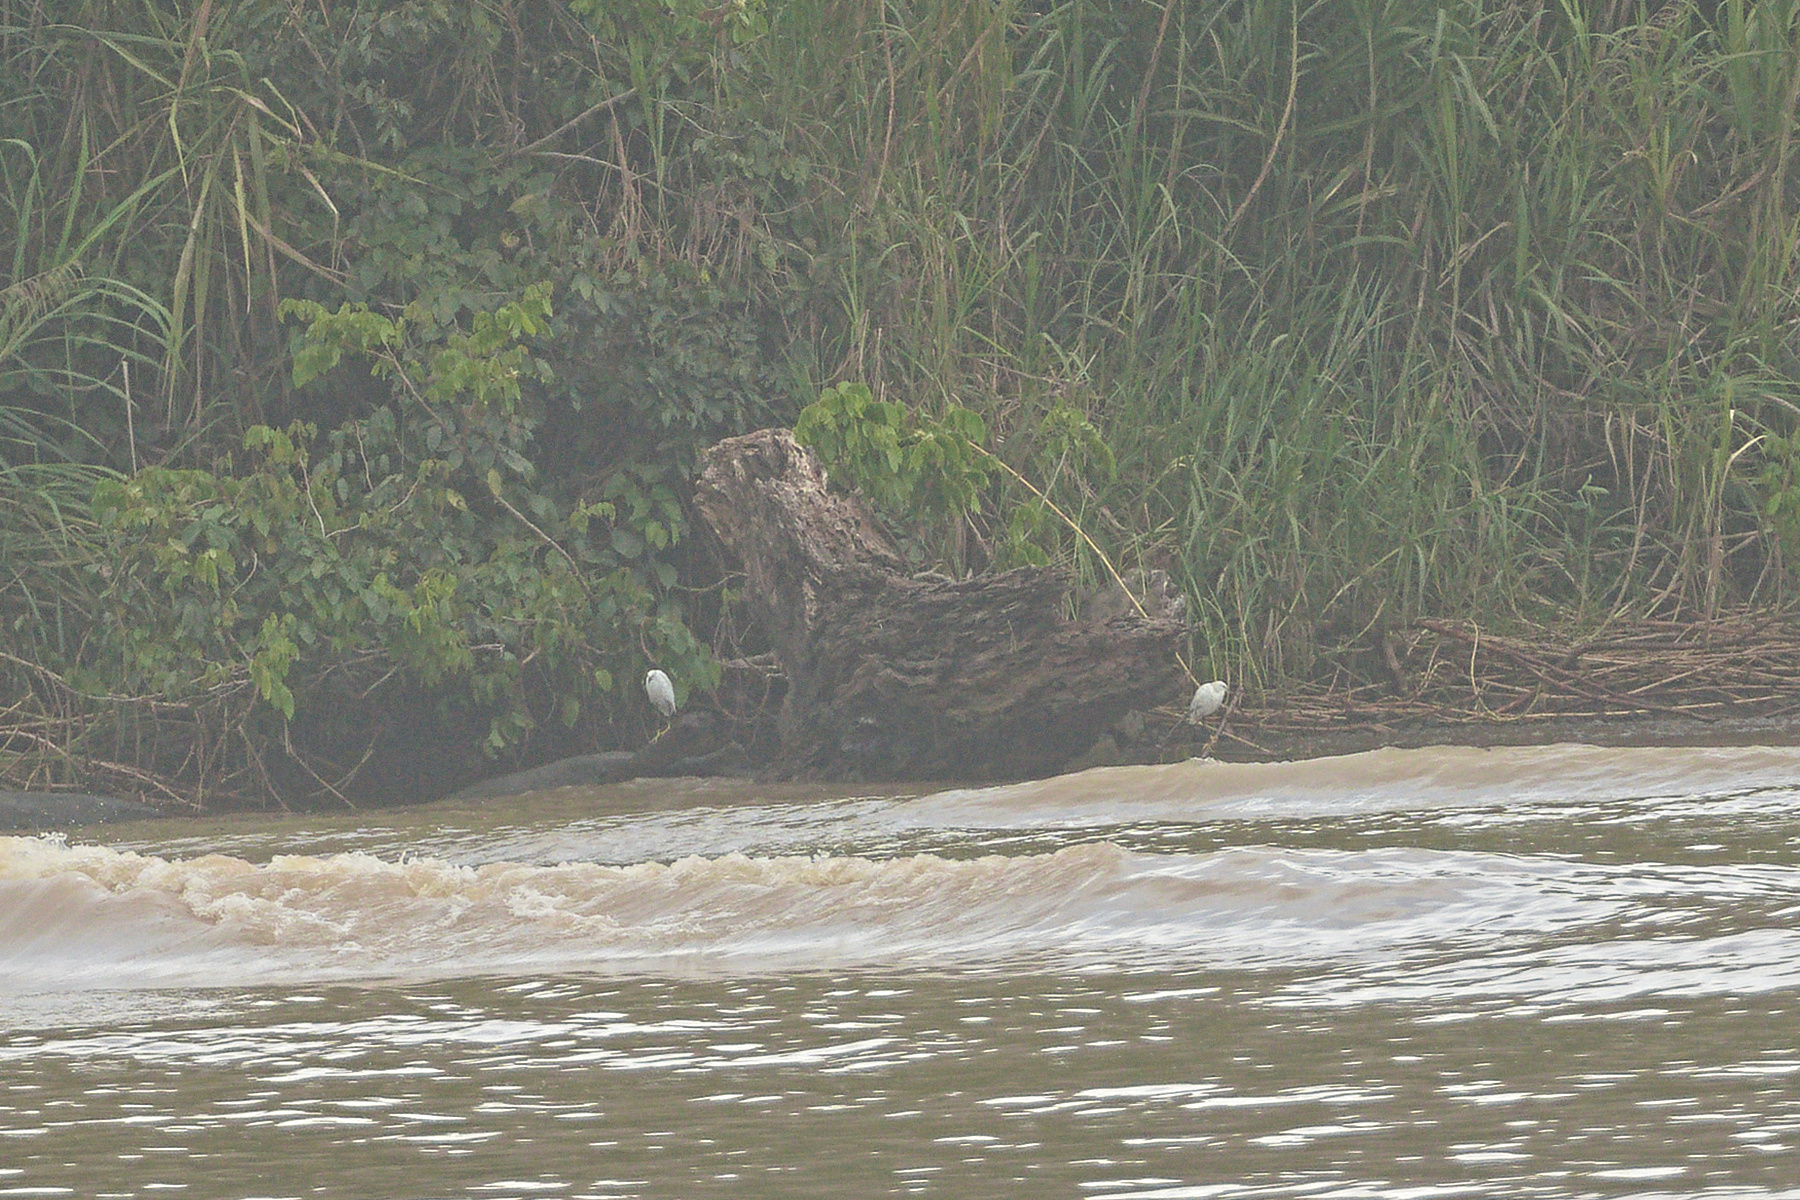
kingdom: Animalia
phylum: Chordata
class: Aves
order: Pelecaniformes
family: Ardeidae
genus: Egretta
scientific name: Egretta thula
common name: Snowy egret
